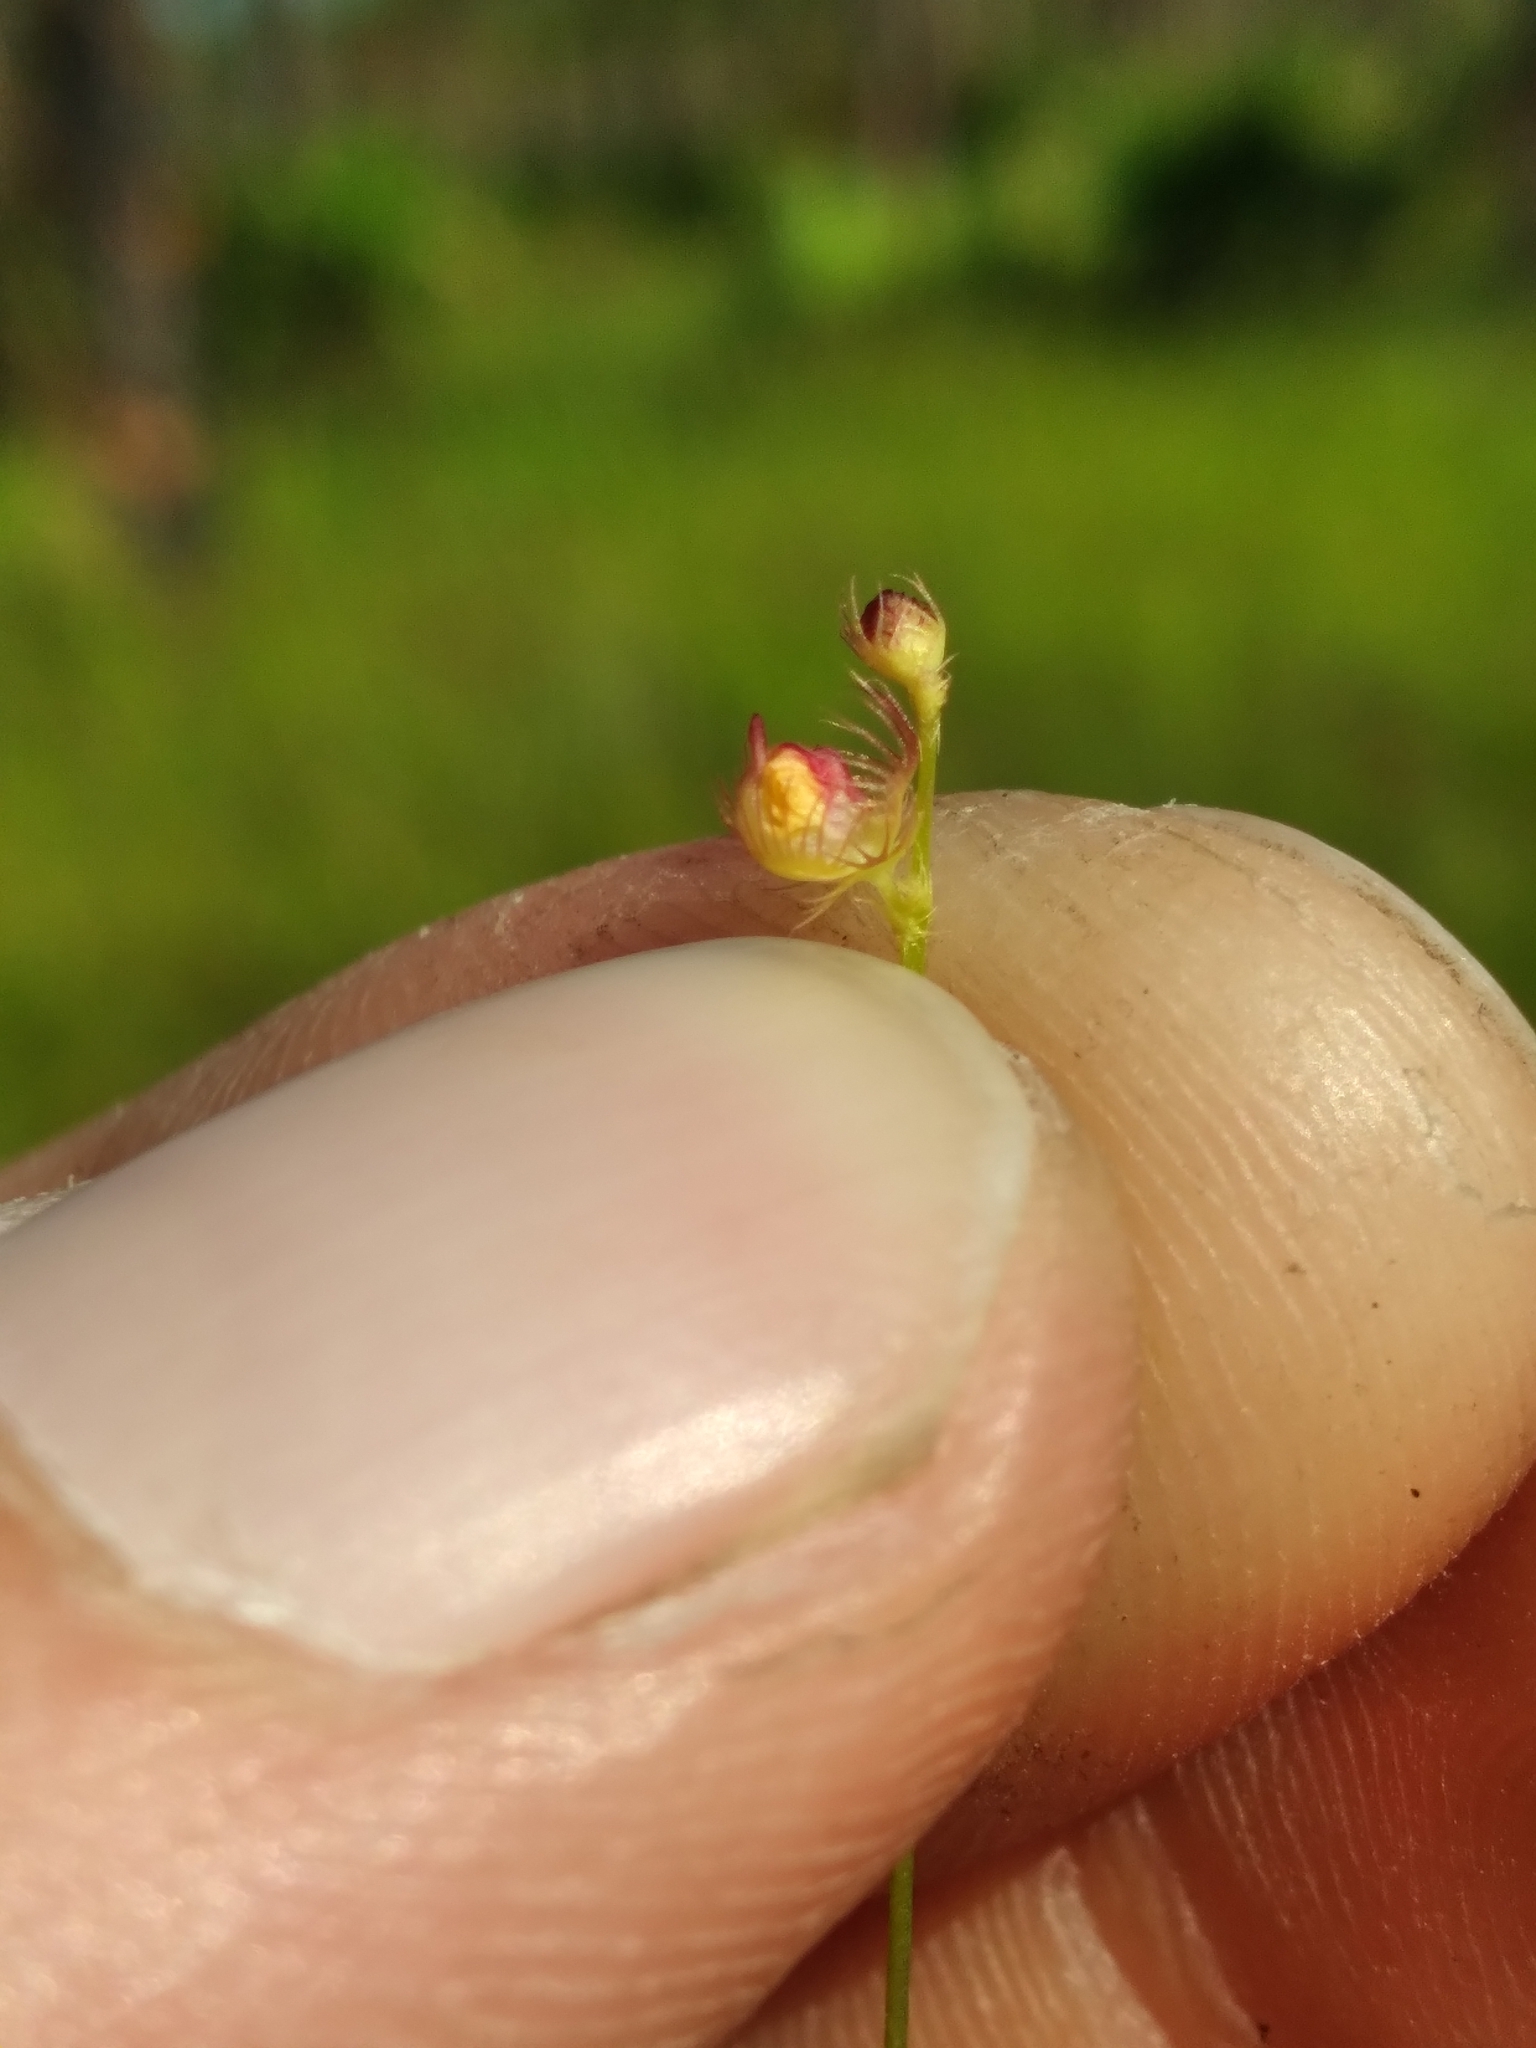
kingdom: Plantae
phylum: Tracheophyta
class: Magnoliopsida
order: Lamiales
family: Lentibulariaceae
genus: Utricularia
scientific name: Utricularia simulans
